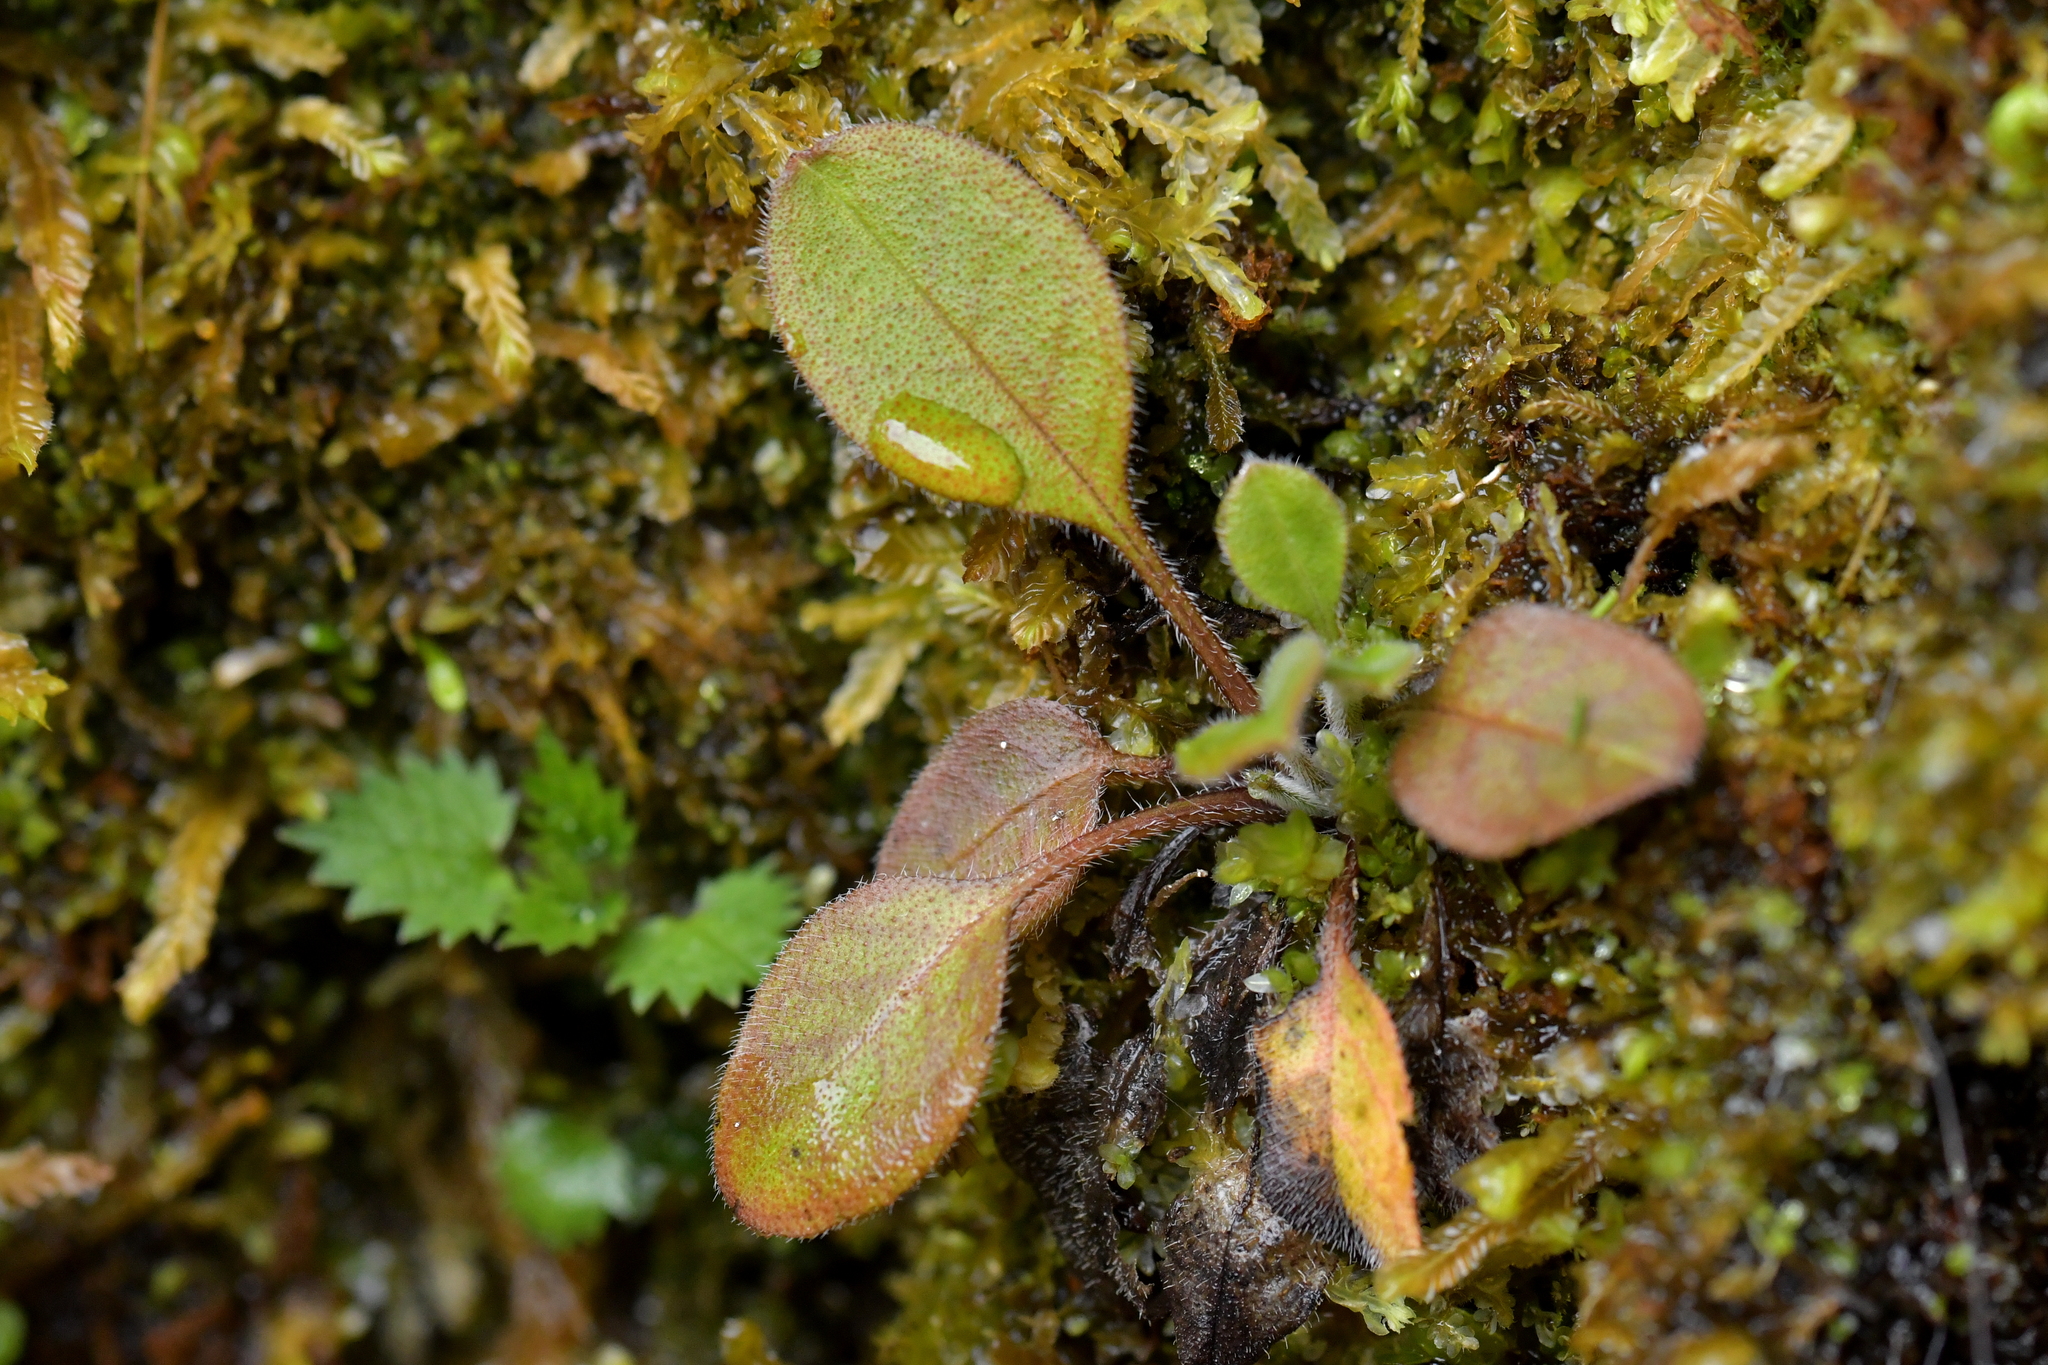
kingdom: Plantae
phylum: Tracheophyta
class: Magnoliopsida
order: Boraginales
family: Boraginaceae
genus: Myosotis
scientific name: Myosotis forsteri
